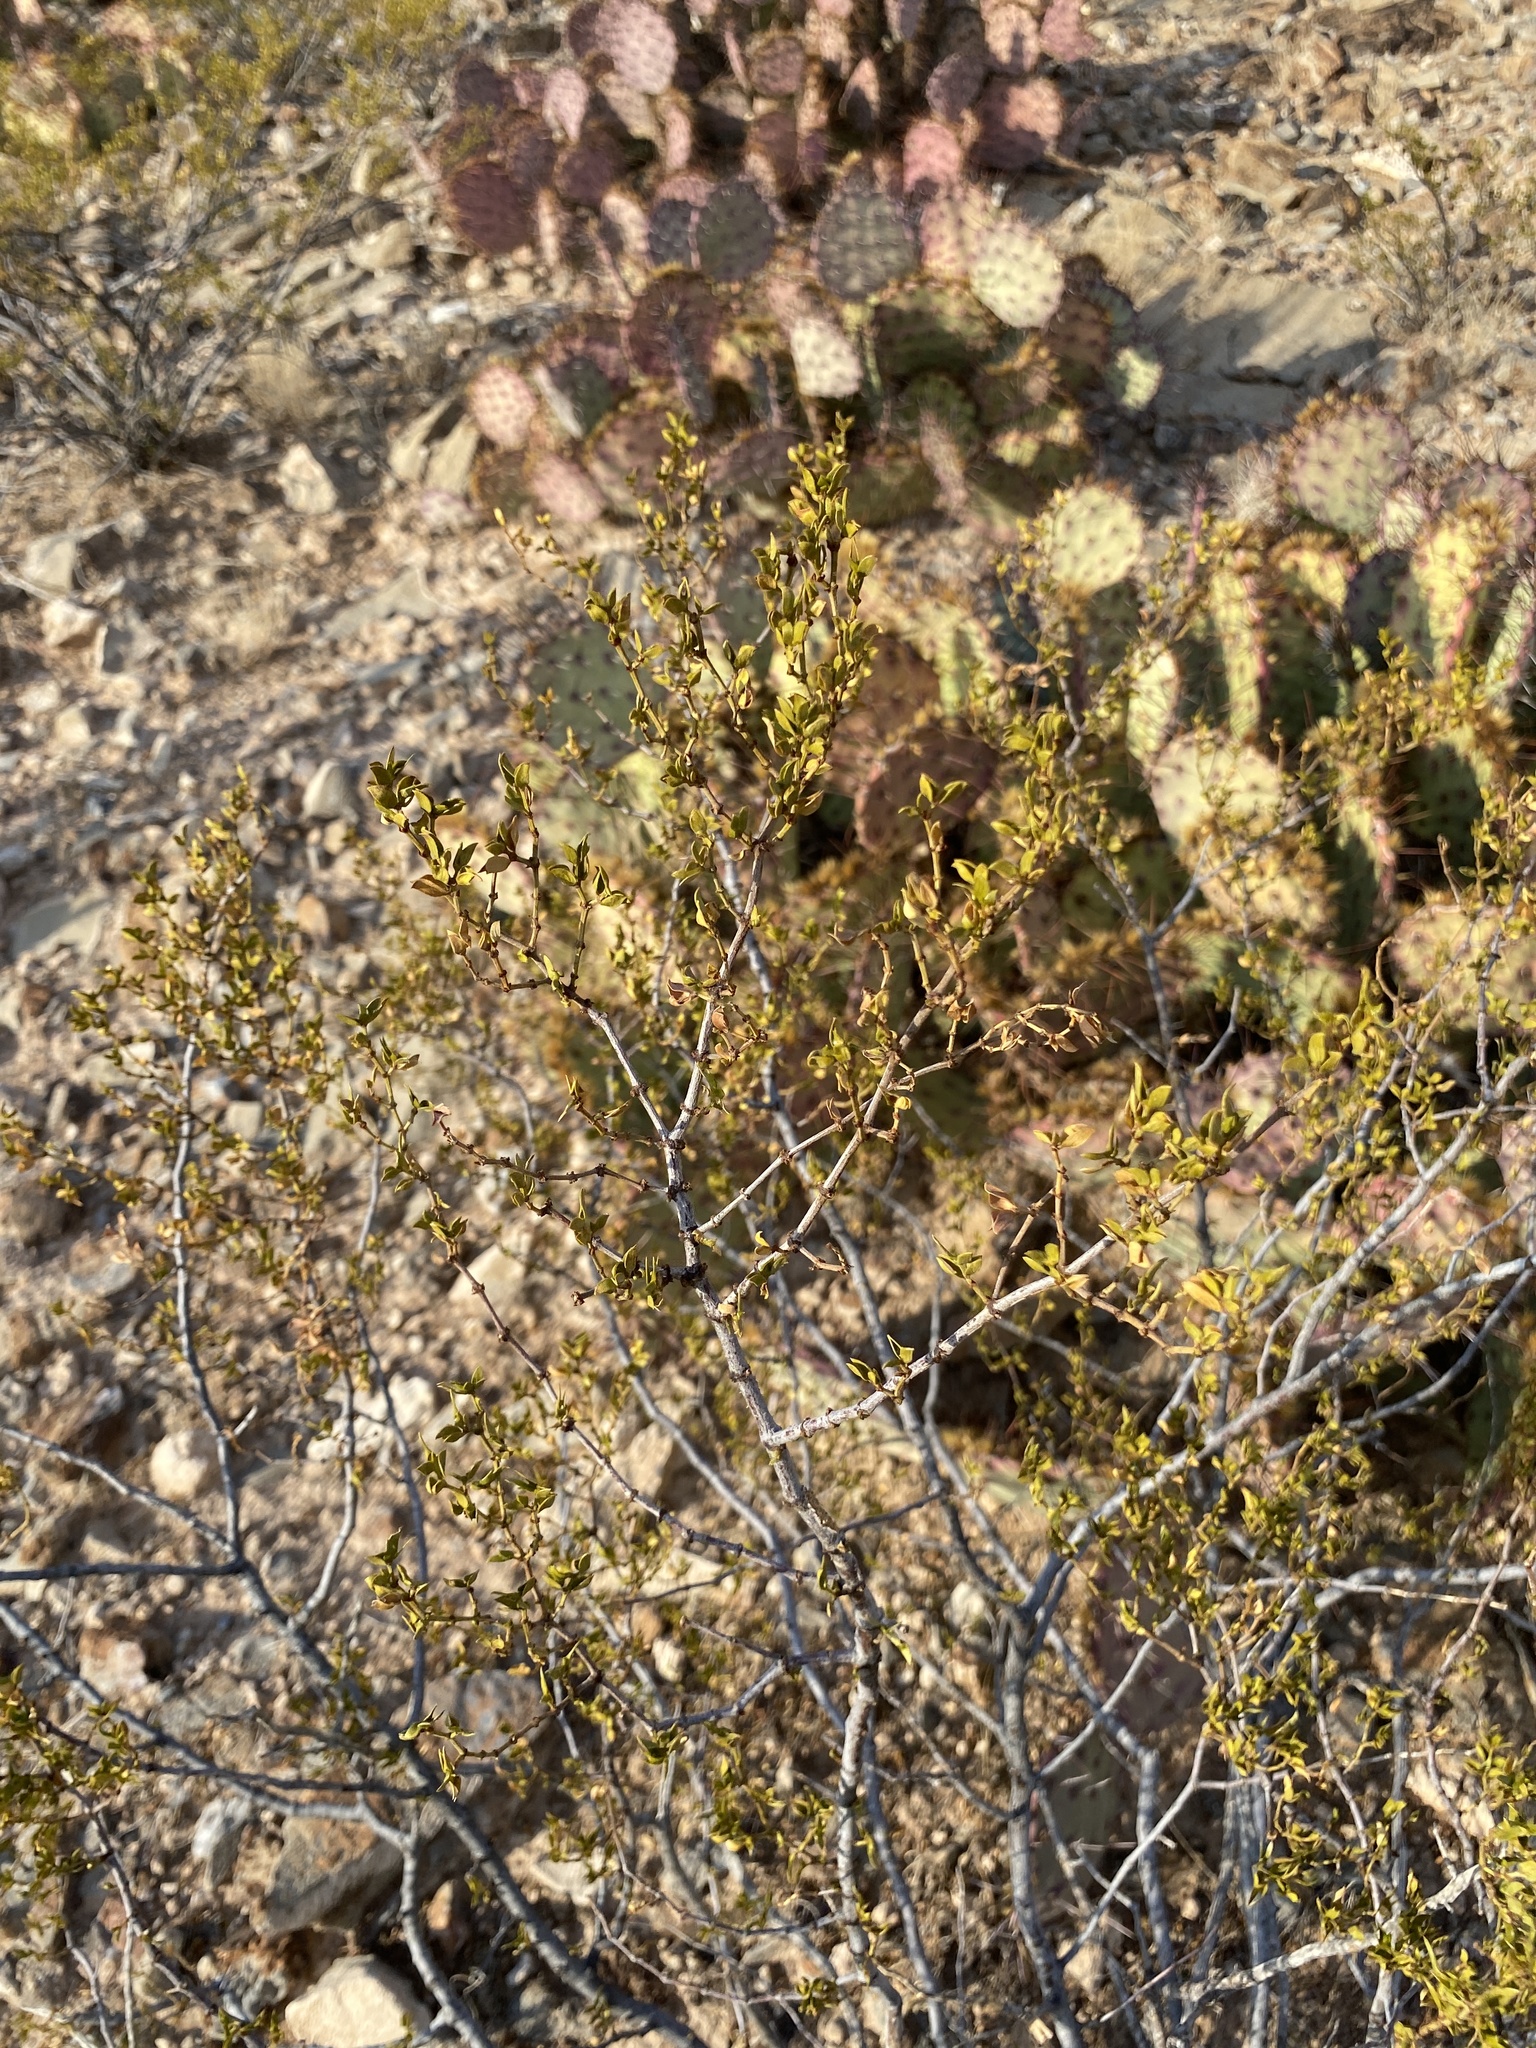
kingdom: Plantae
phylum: Tracheophyta
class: Magnoliopsida
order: Zygophyllales
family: Zygophyllaceae
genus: Larrea
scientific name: Larrea tridentata
